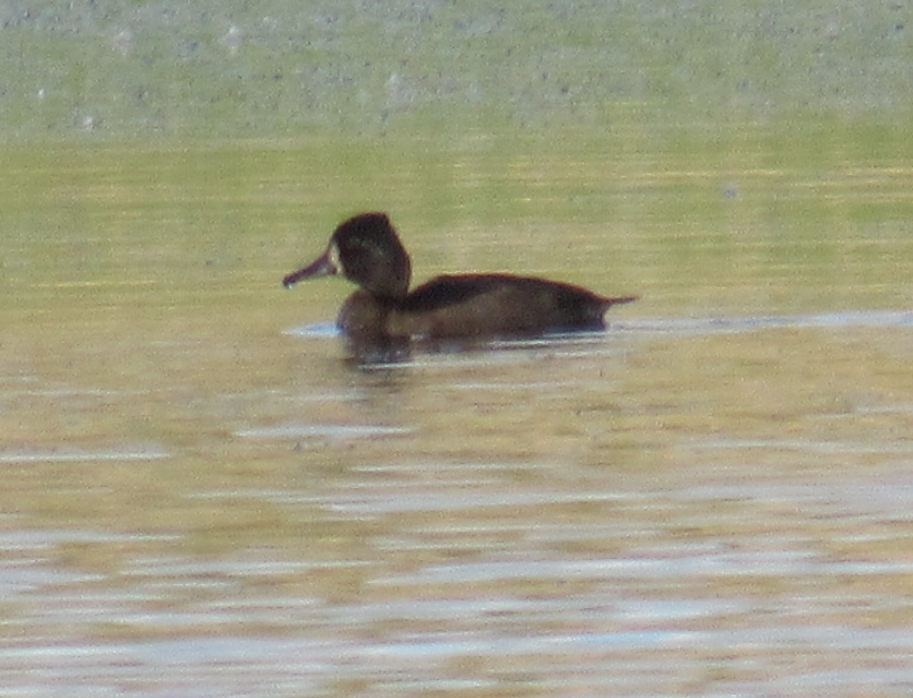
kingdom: Animalia
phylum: Chordata
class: Aves
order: Anseriformes
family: Anatidae
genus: Aythya
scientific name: Aythya collaris
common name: Ring-necked duck
